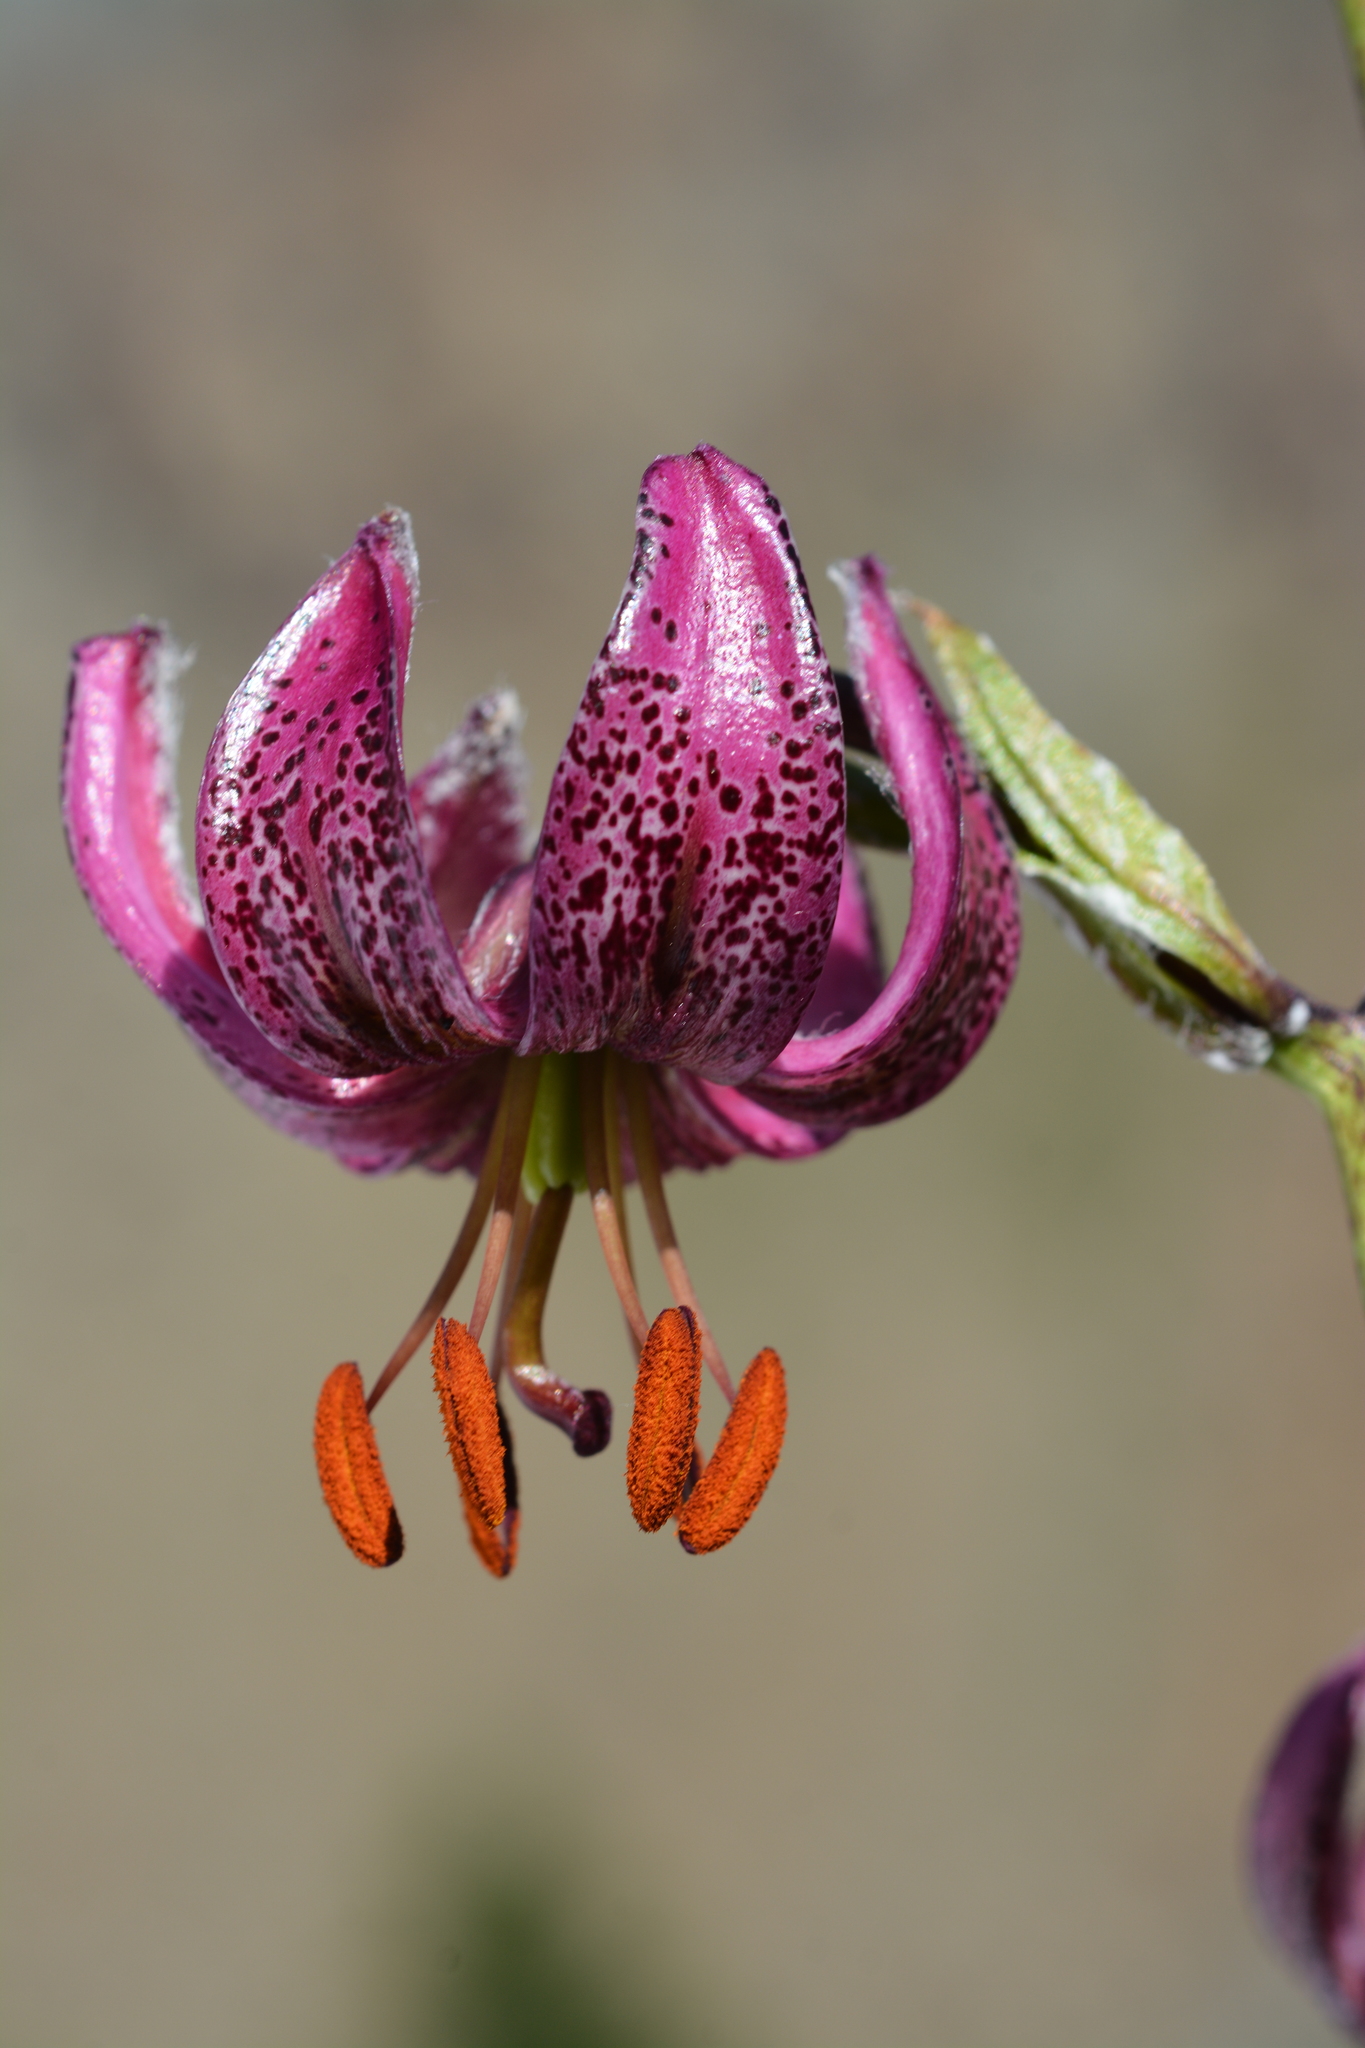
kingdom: Plantae
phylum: Tracheophyta
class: Liliopsida
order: Liliales
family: Liliaceae
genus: Lilium
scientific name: Lilium martagon
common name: Martagon lily
